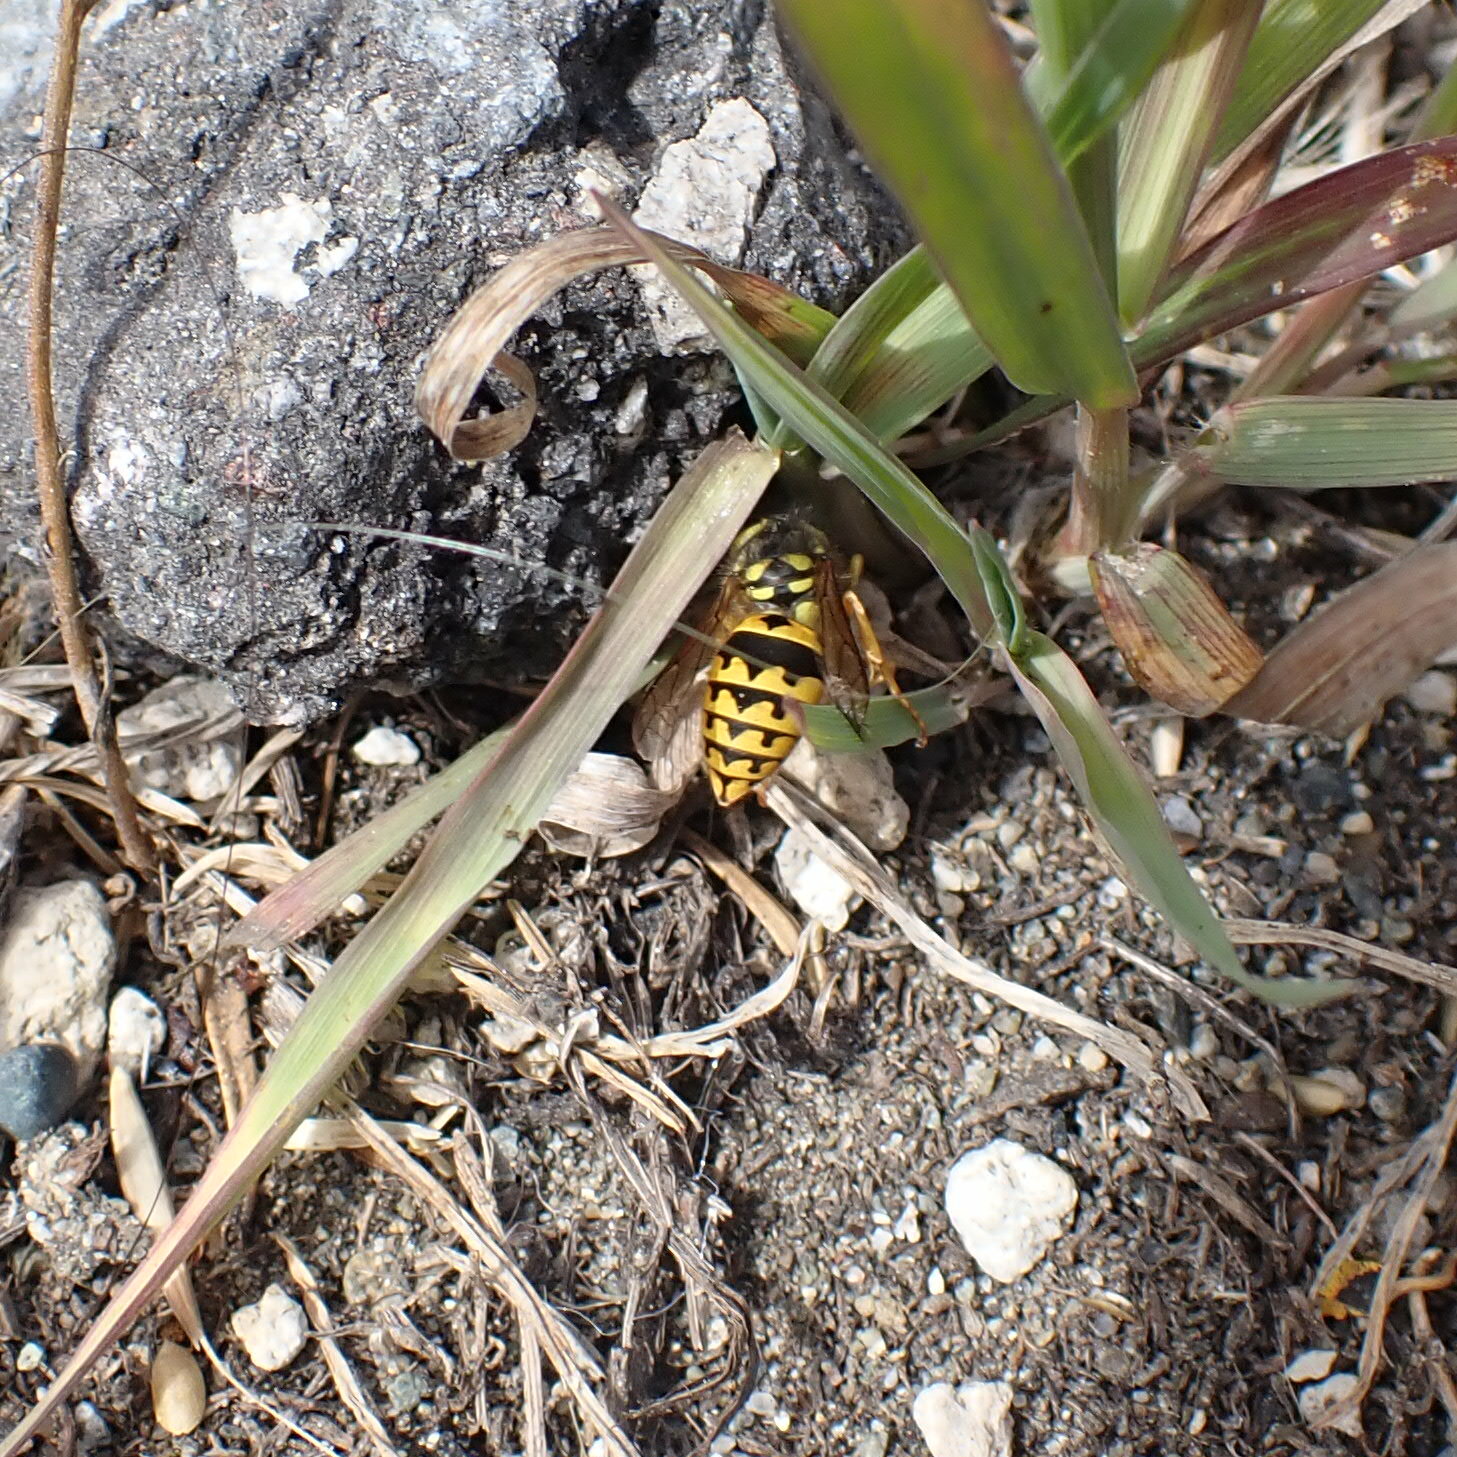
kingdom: Animalia
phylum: Arthropoda
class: Insecta
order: Hymenoptera
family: Vespidae
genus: Vespula
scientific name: Vespula pensylvanica
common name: Western yellowjacket
